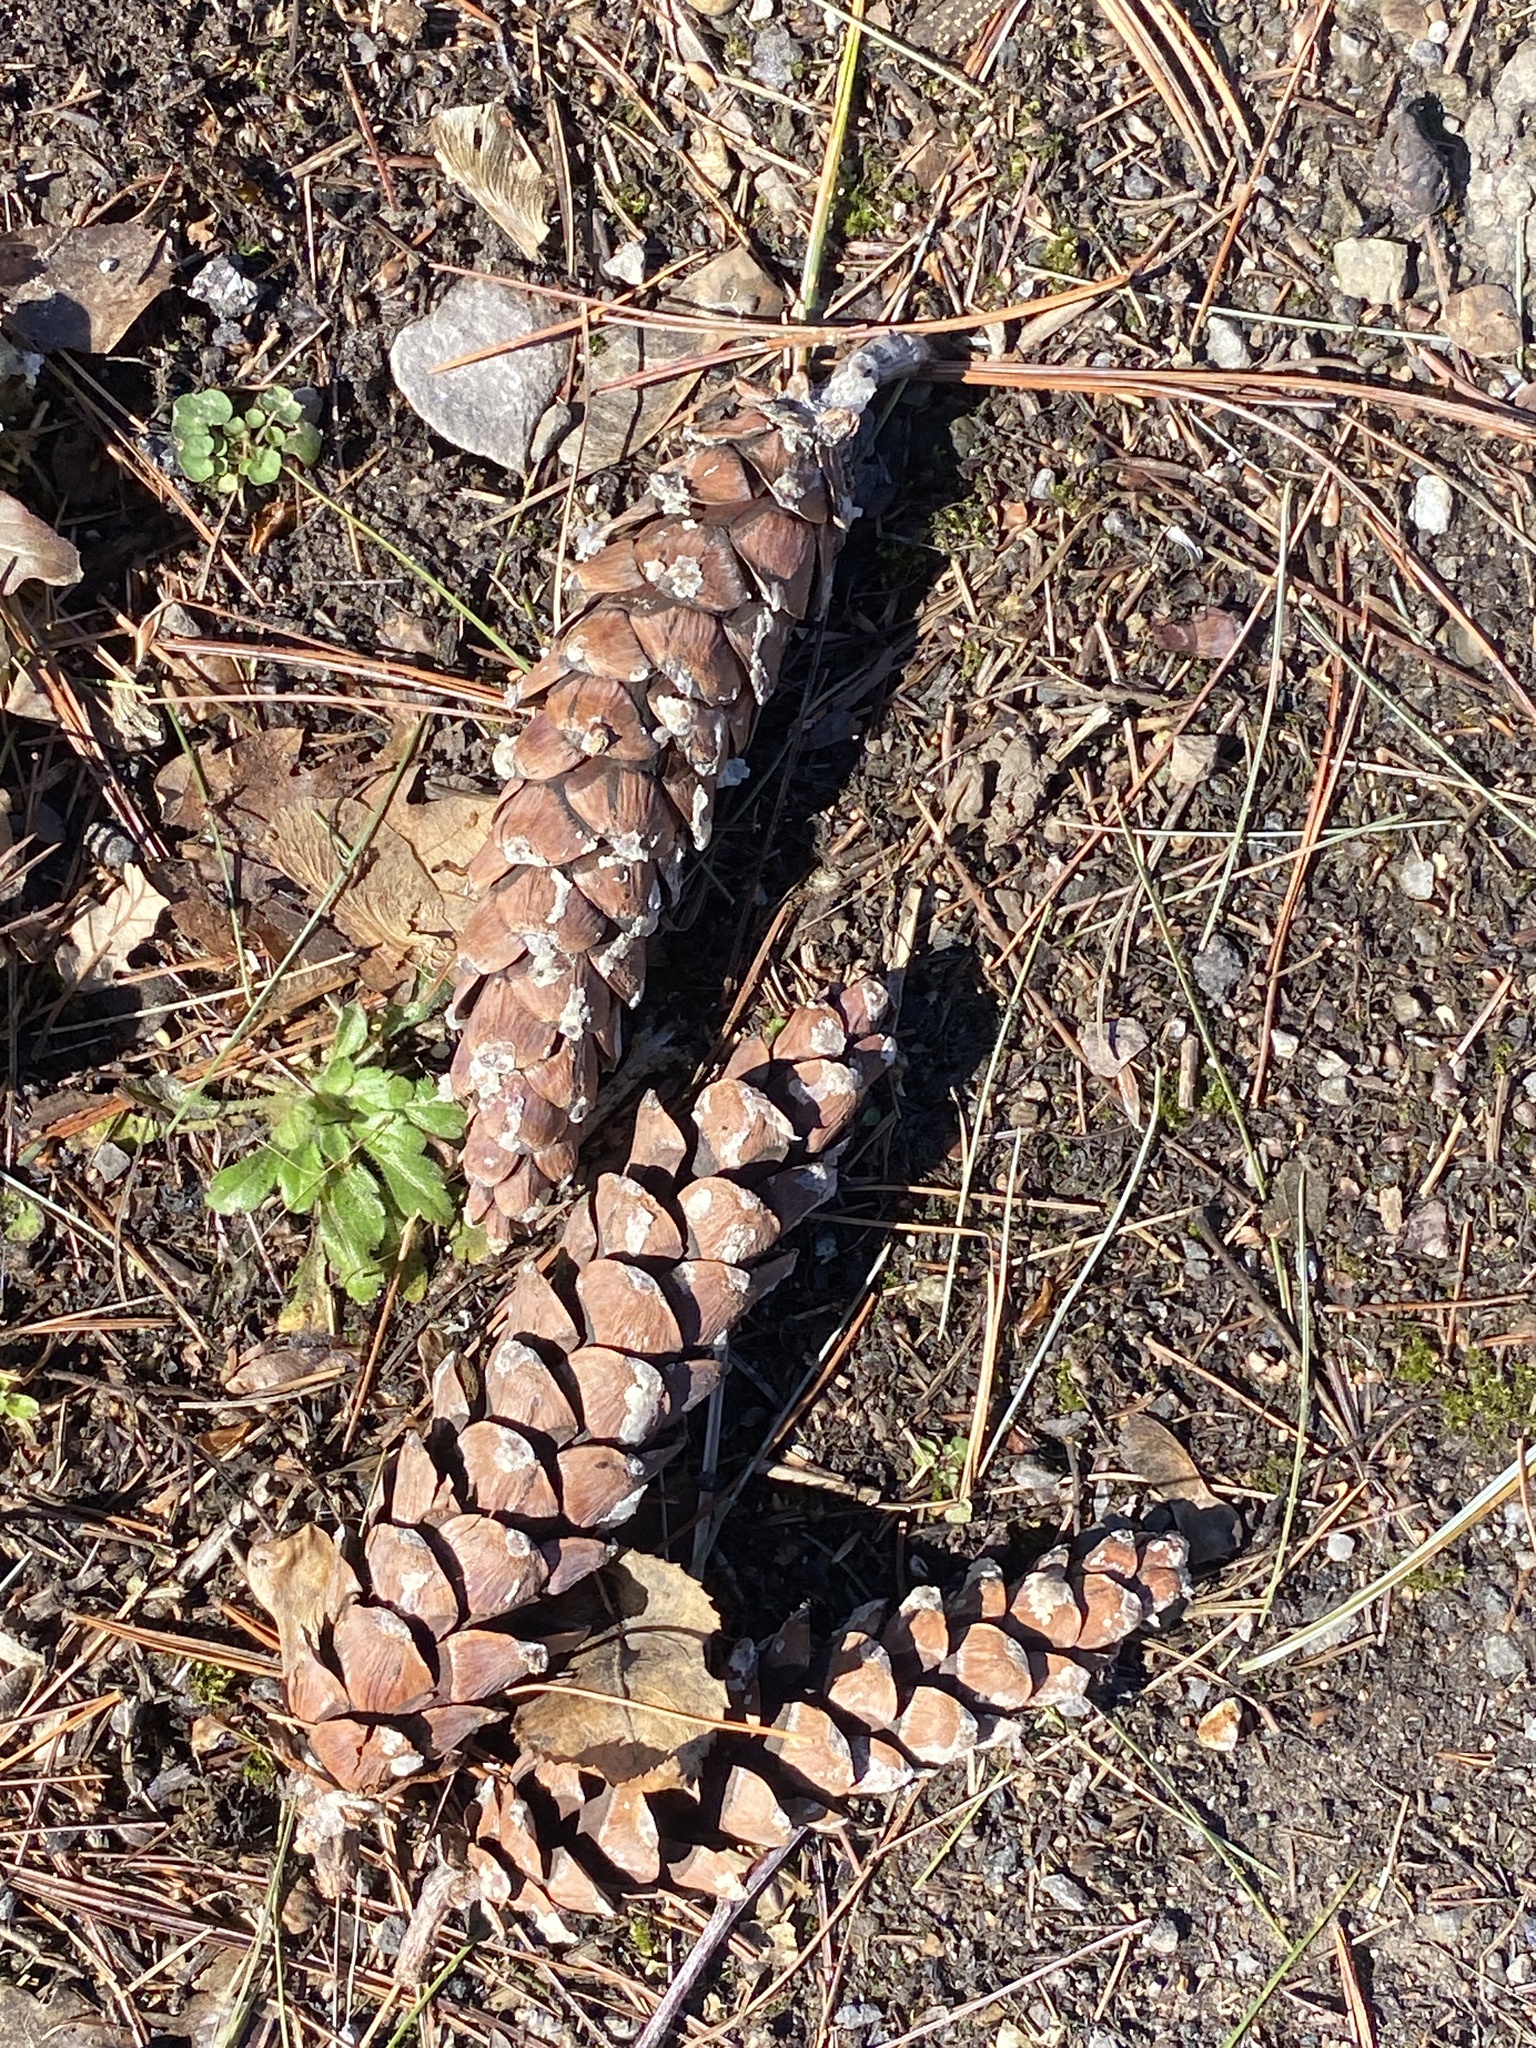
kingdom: Plantae
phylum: Tracheophyta
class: Pinopsida
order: Pinales
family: Pinaceae
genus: Pinus
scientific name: Pinus strobus
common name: Weymouth pine
